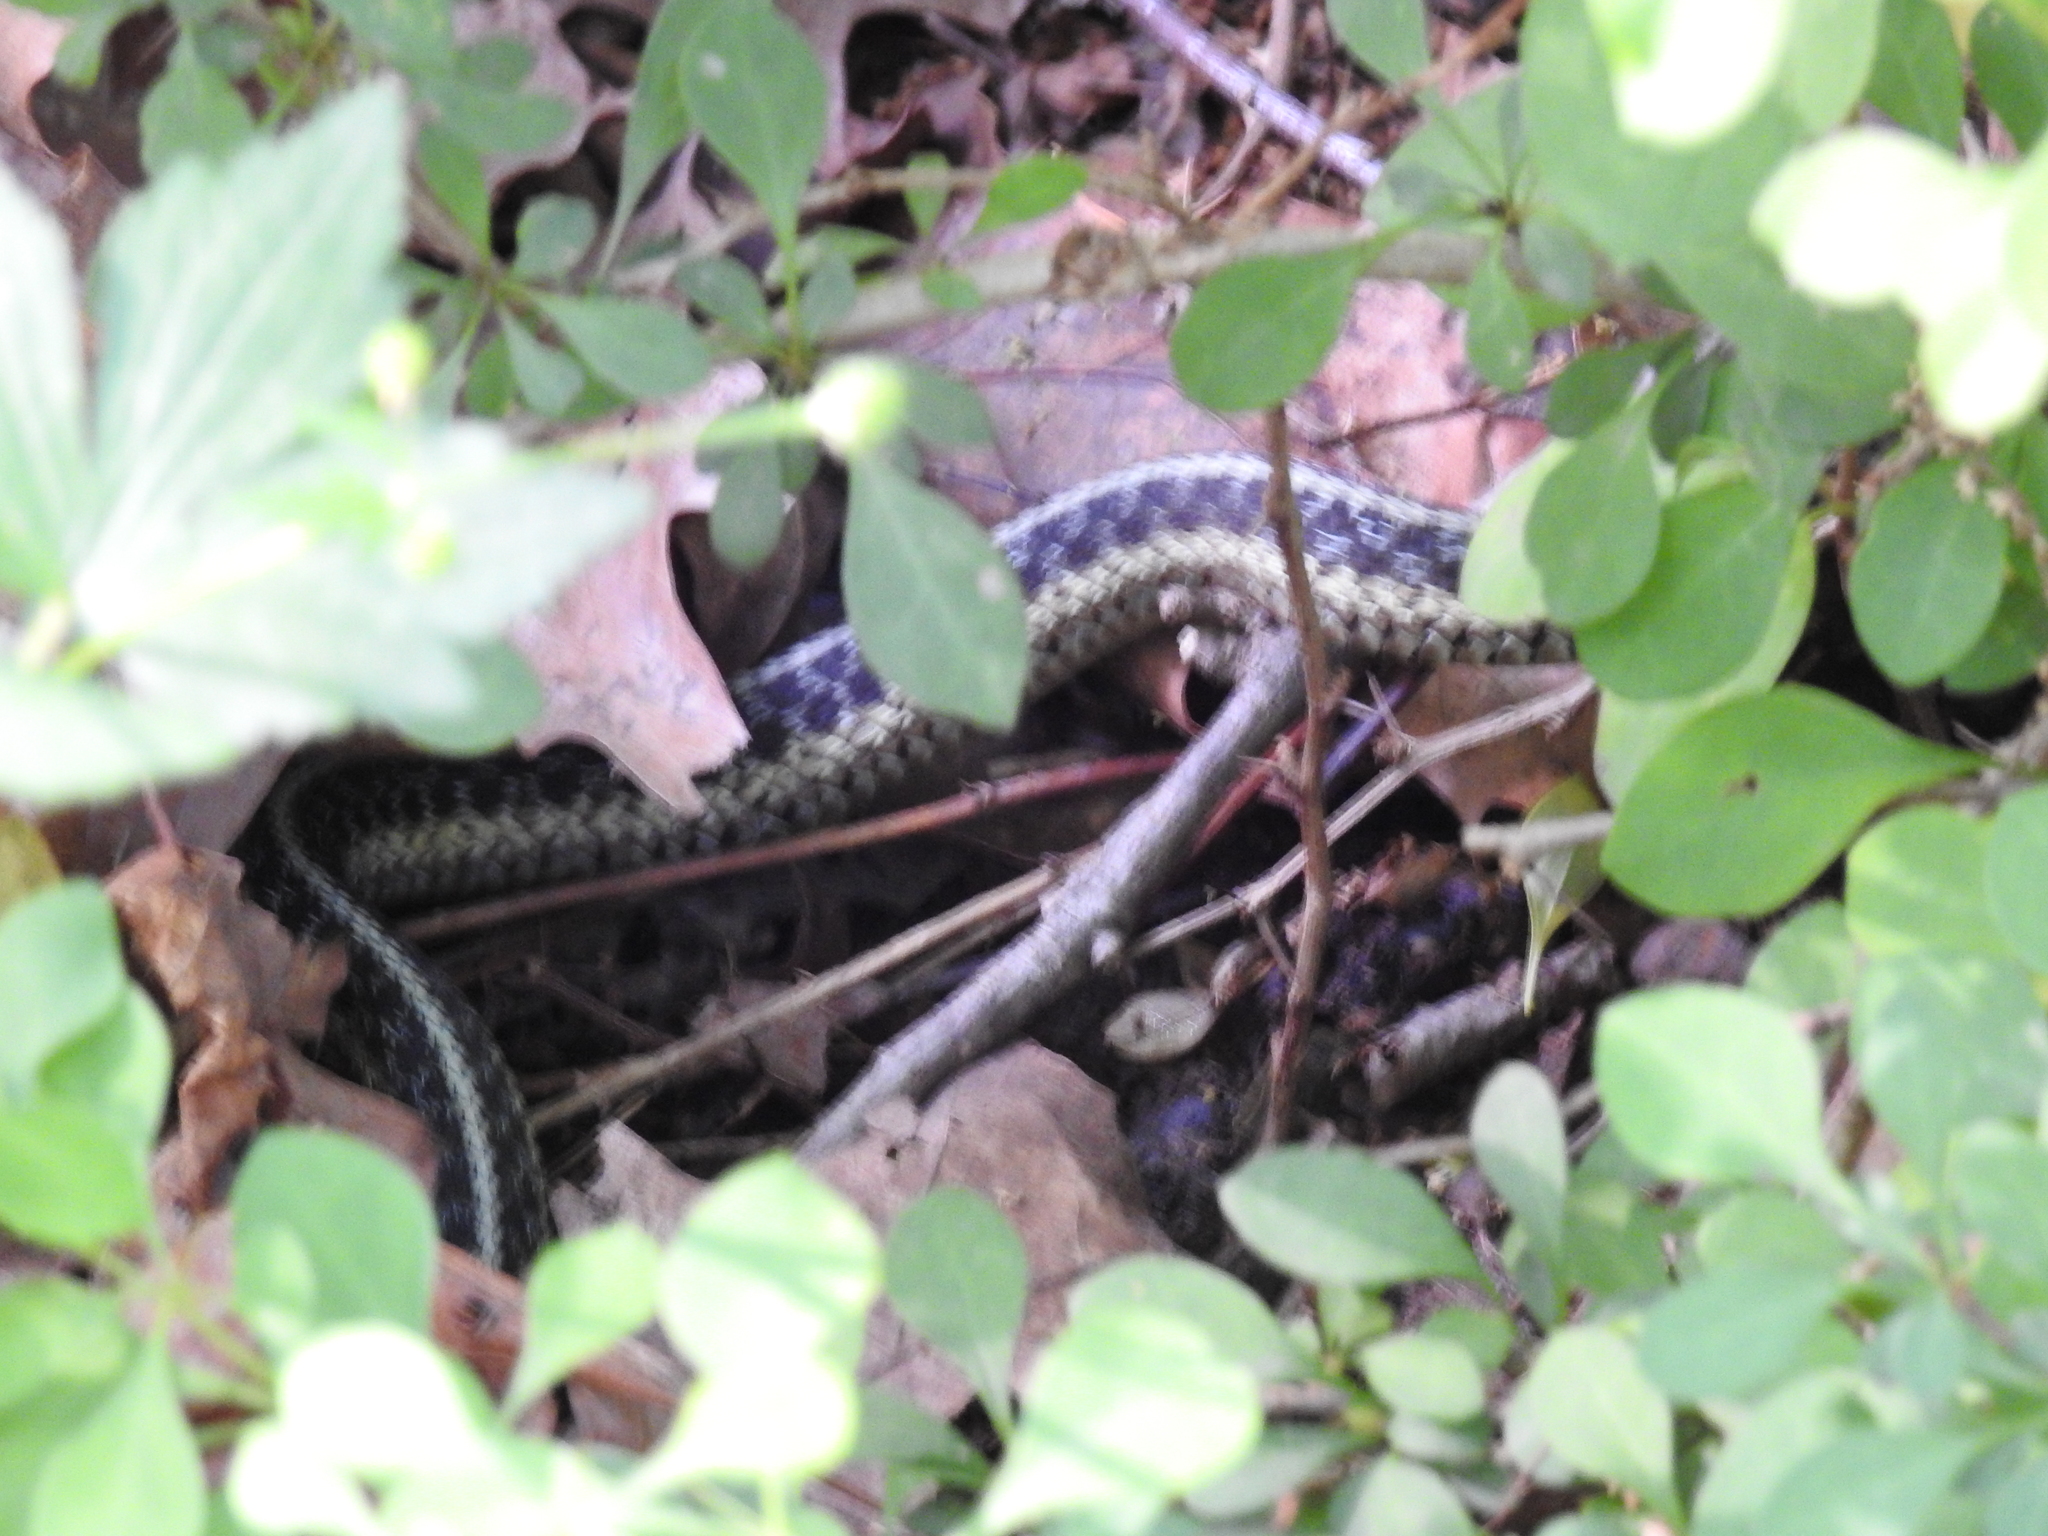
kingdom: Animalia
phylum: Chordata
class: Squamata
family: Colubridae
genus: Thamnophis
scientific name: Thamnophis sirtalis
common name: Common garter snake
